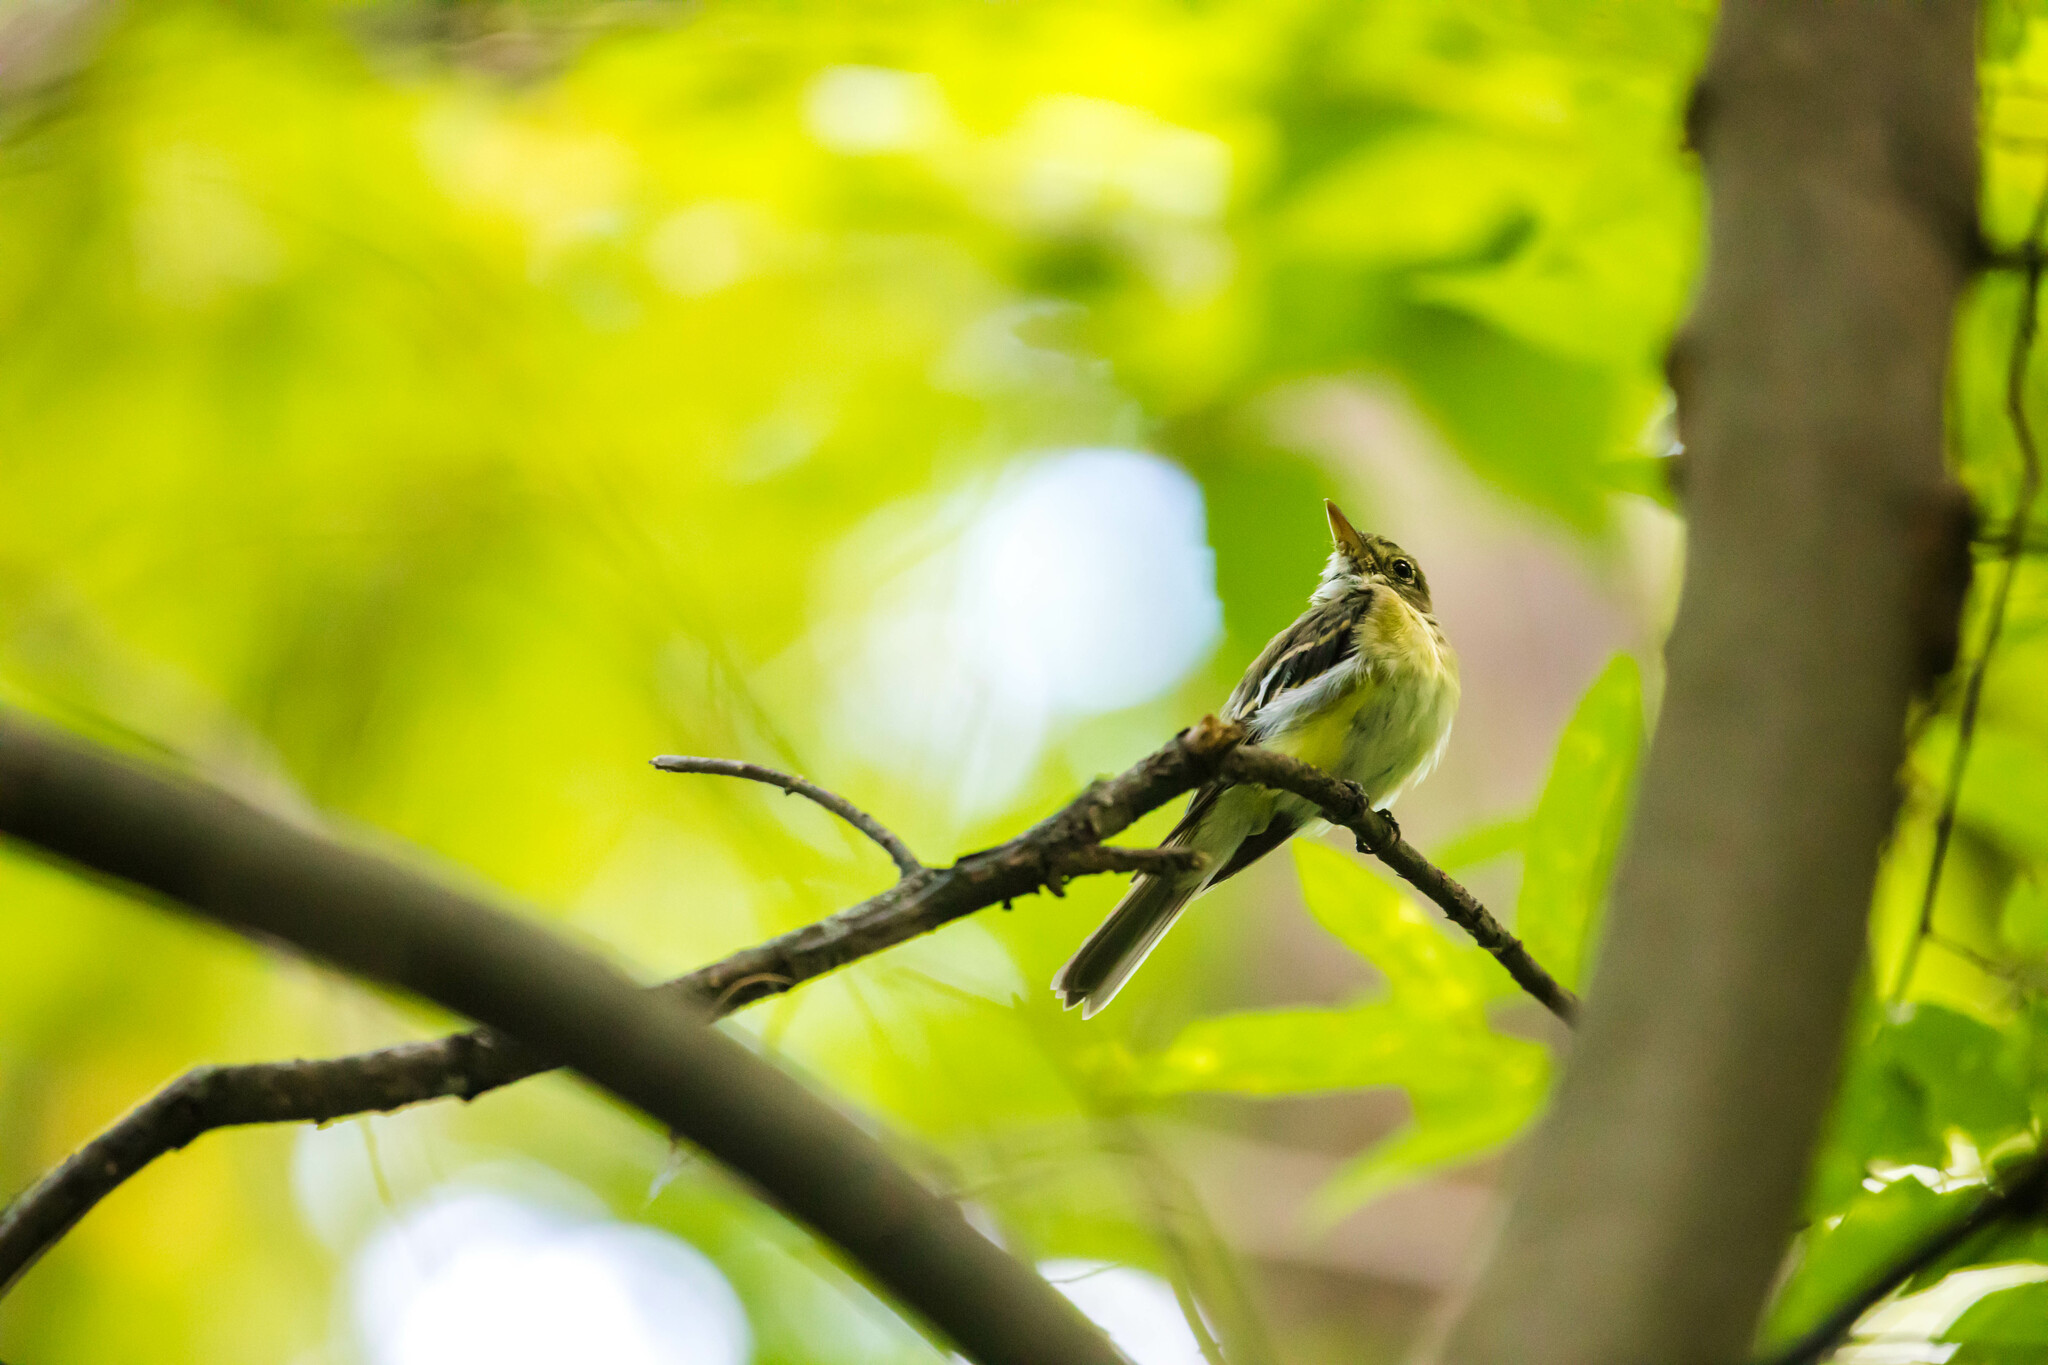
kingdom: Animalia
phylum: Chordata
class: Aves
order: Passeriformes
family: Tyrannidae
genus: Empidonax
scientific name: Empidonax virescens
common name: Acadian flycatcher
